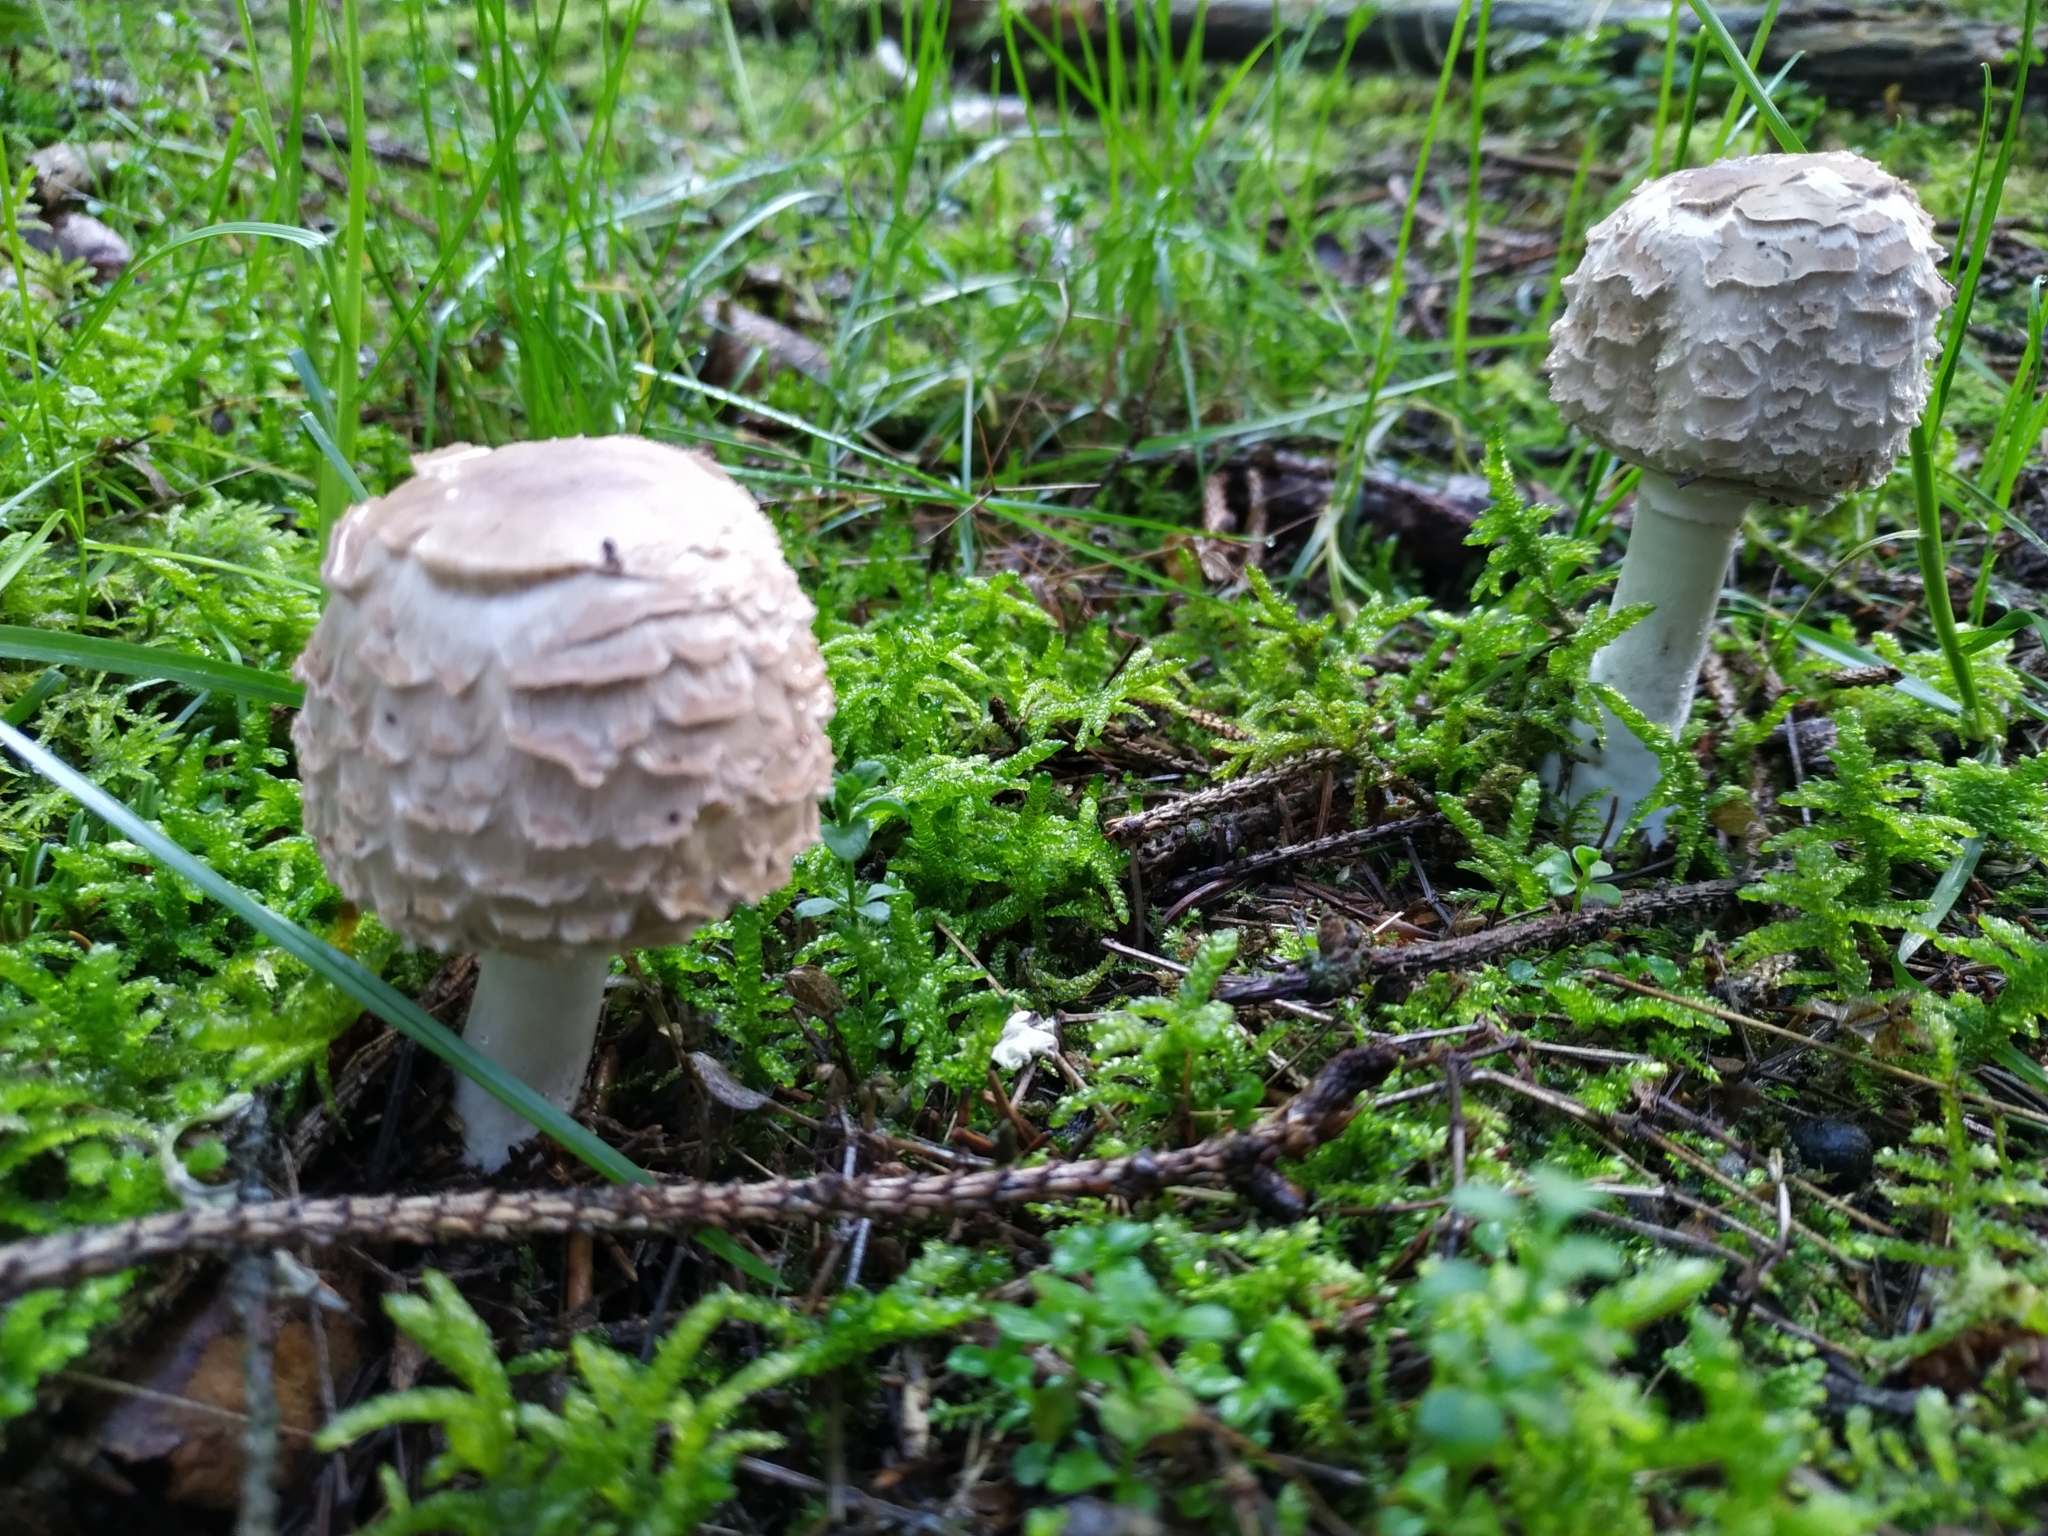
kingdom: Fungi
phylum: Basidiomycota
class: Agaricomycetes
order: Agaricales
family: Agaricaceae
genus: Chlorophyllum
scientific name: Chlorophyllum olivieri
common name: Conifer parasol
